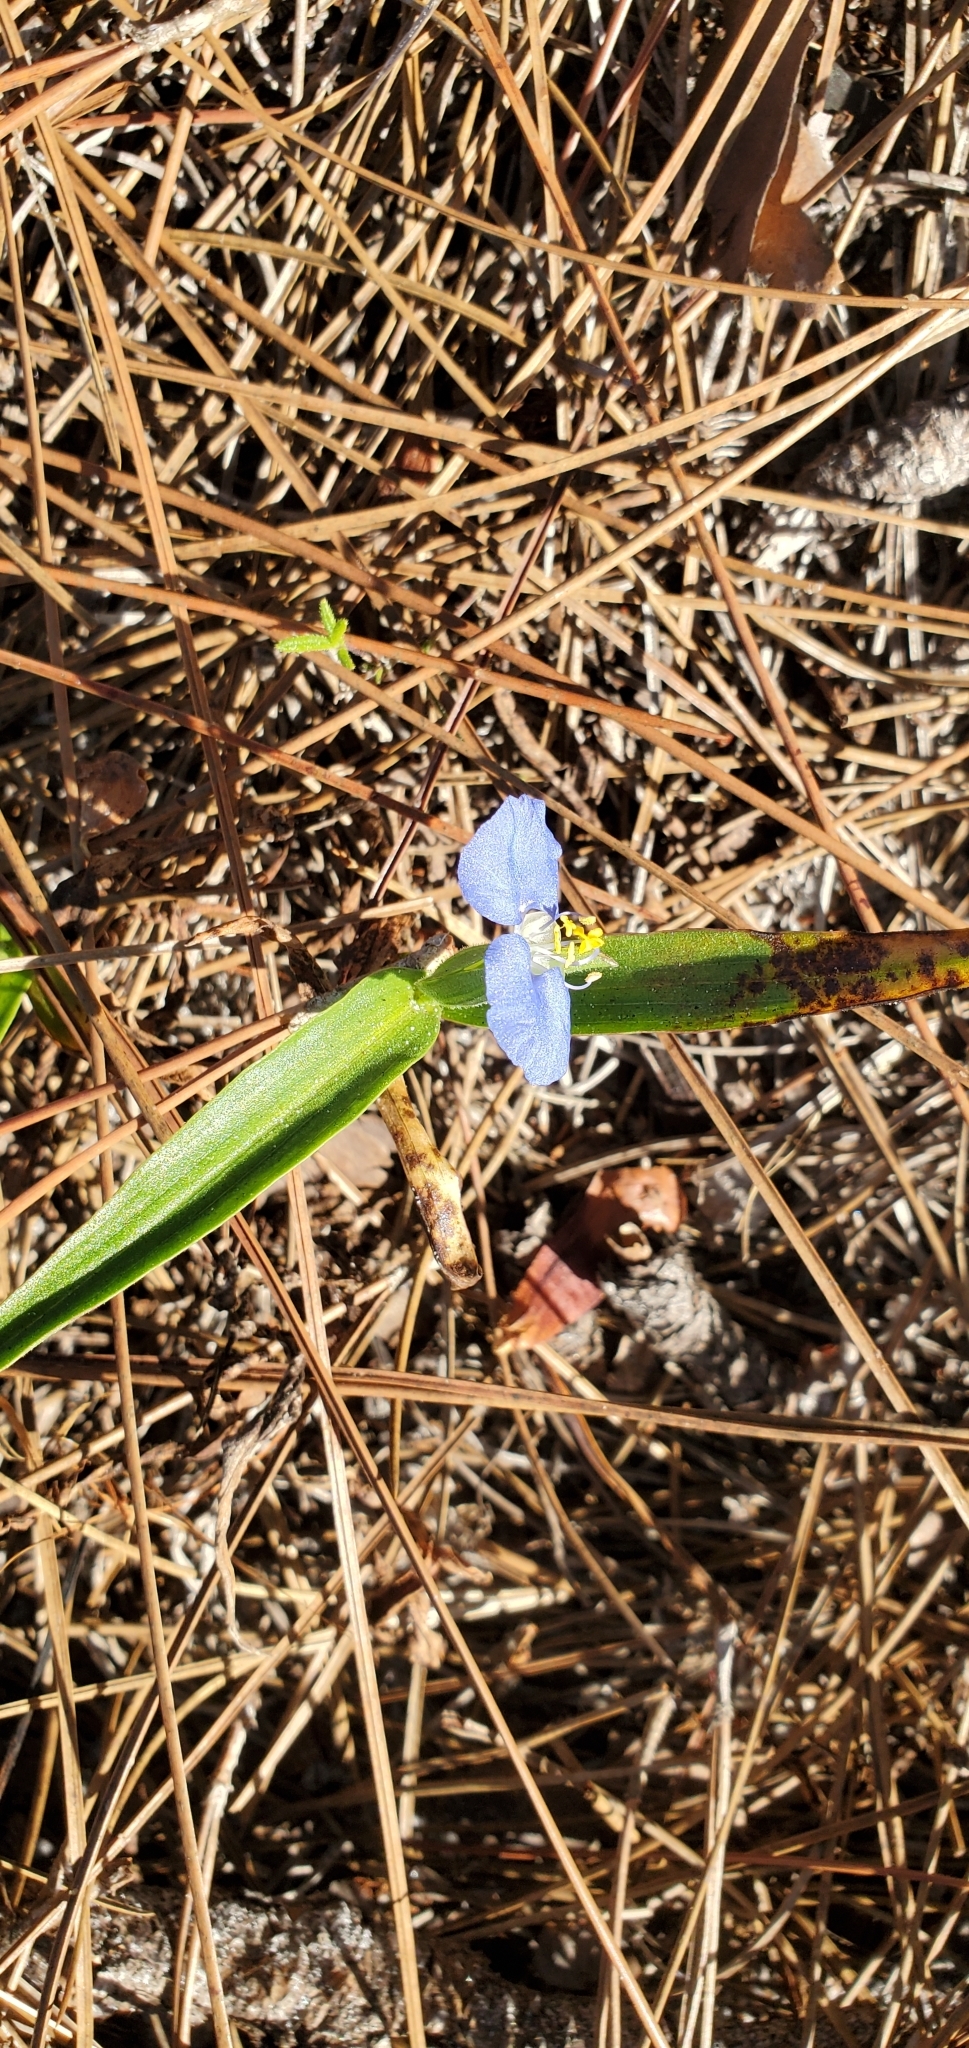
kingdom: Plantae
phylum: Tracheophyta
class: Liliopsida
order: Commelinales
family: Commelinaceae
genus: Commelina
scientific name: Commelina erecta
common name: Blousel blommetjie
